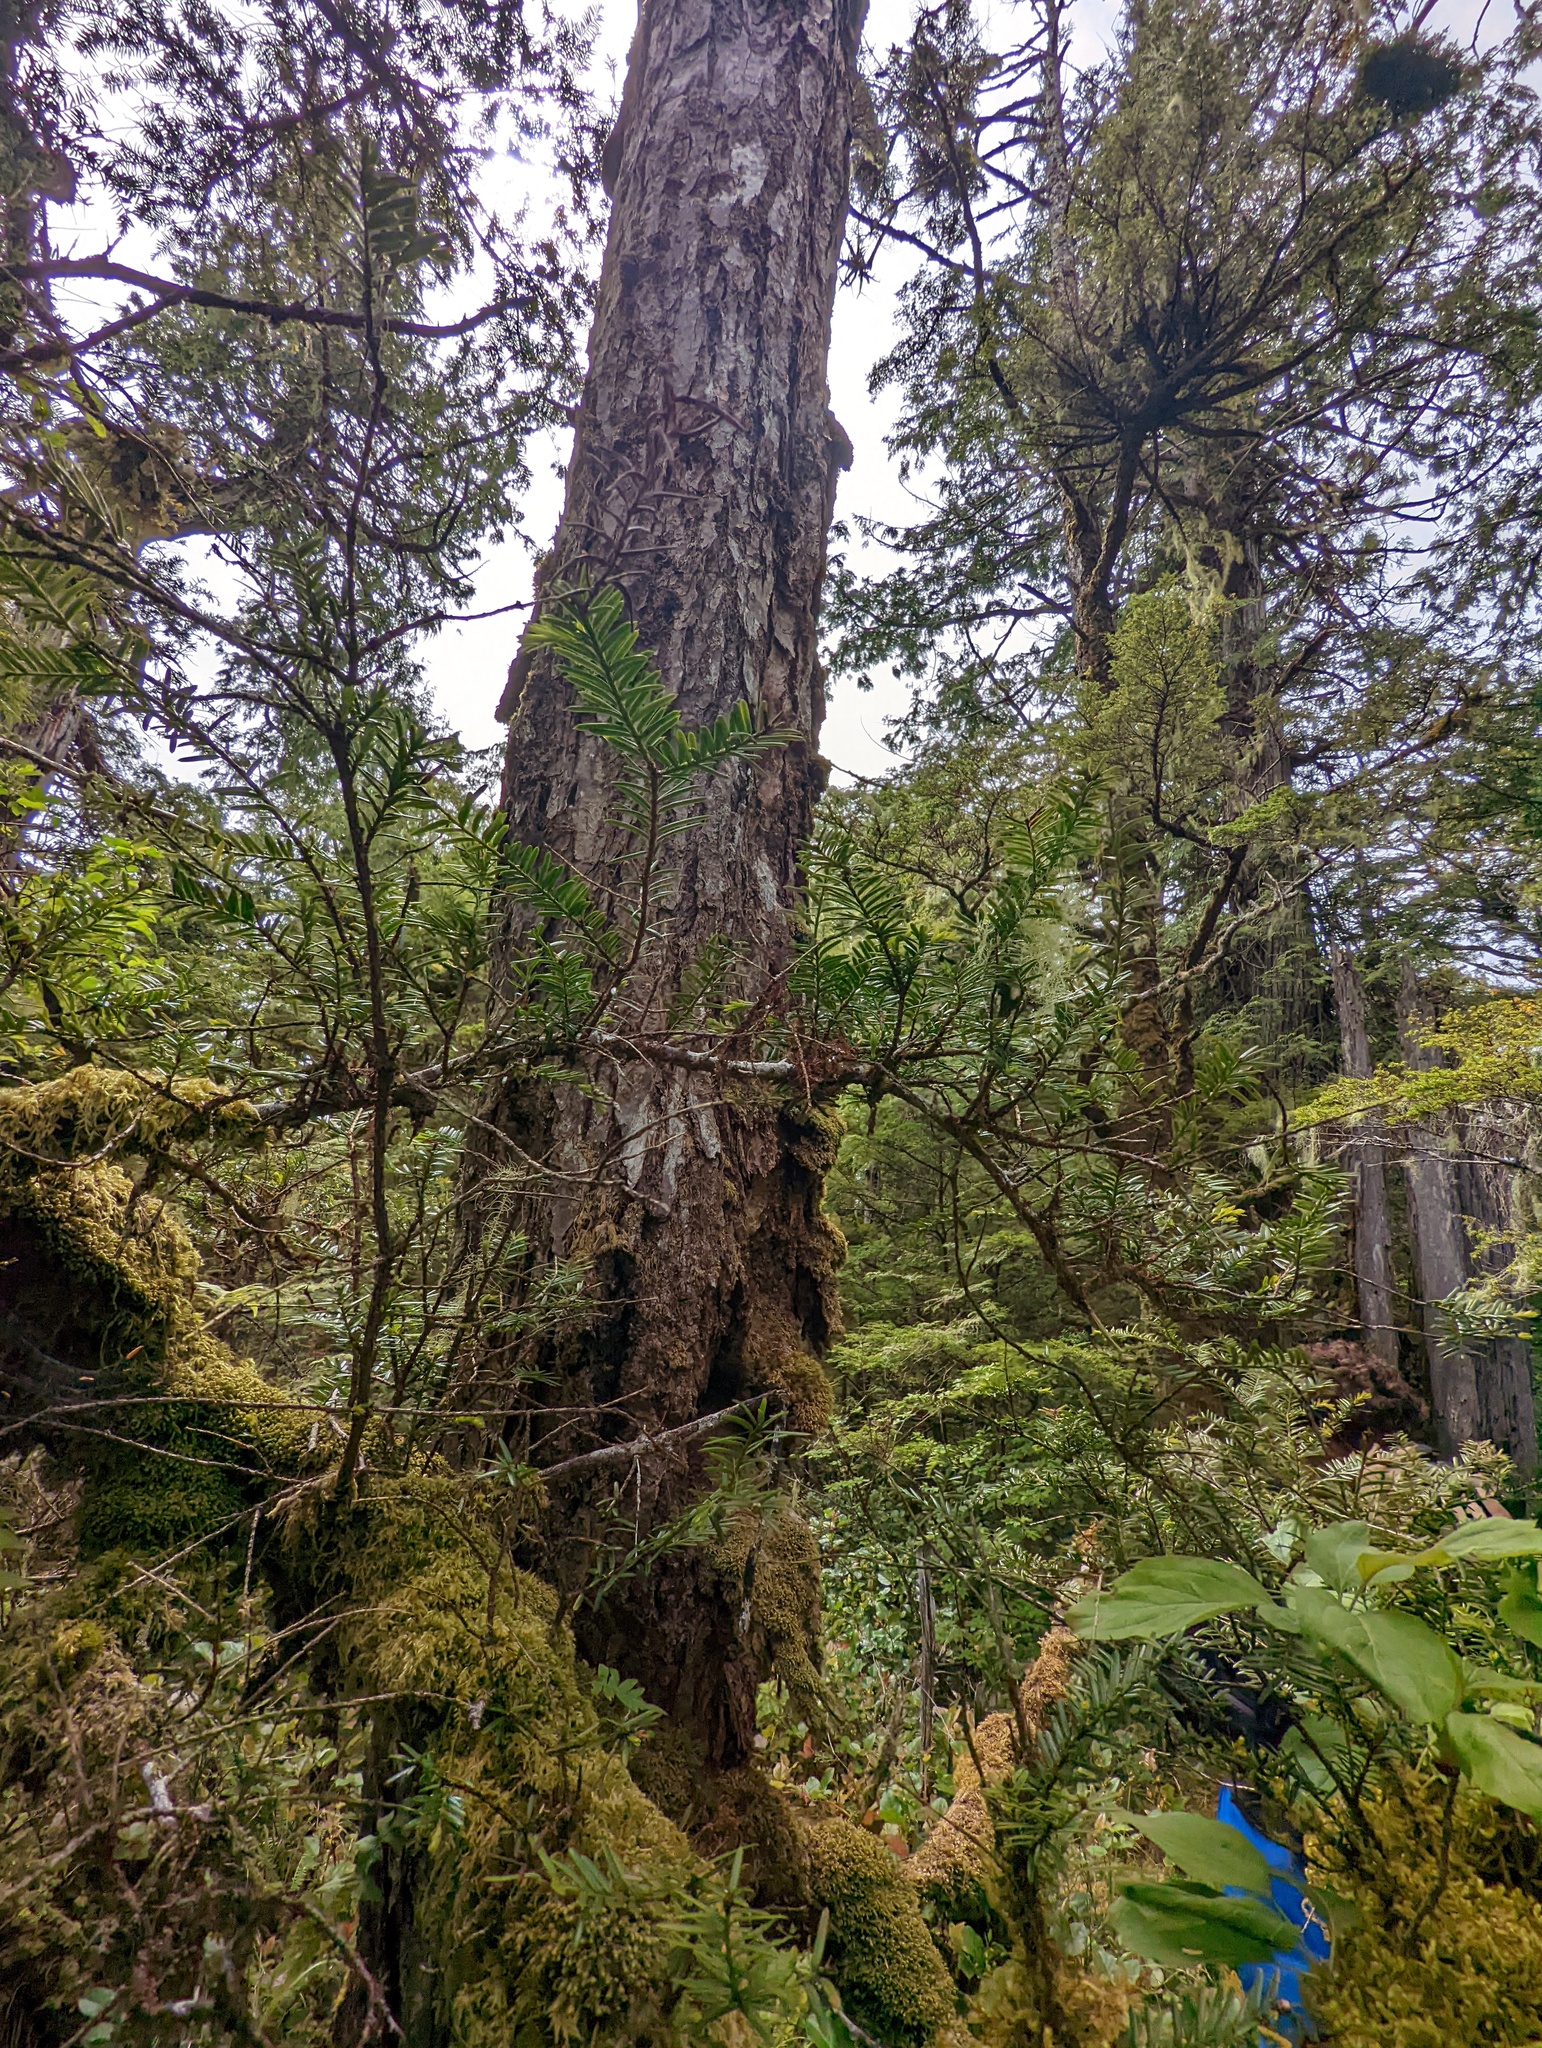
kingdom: Plantae
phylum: Tracheophyta
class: Pinopsida
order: Pinales
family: Taxaceae
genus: Taxus
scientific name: Taxus brevifolia
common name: Pacific yew
